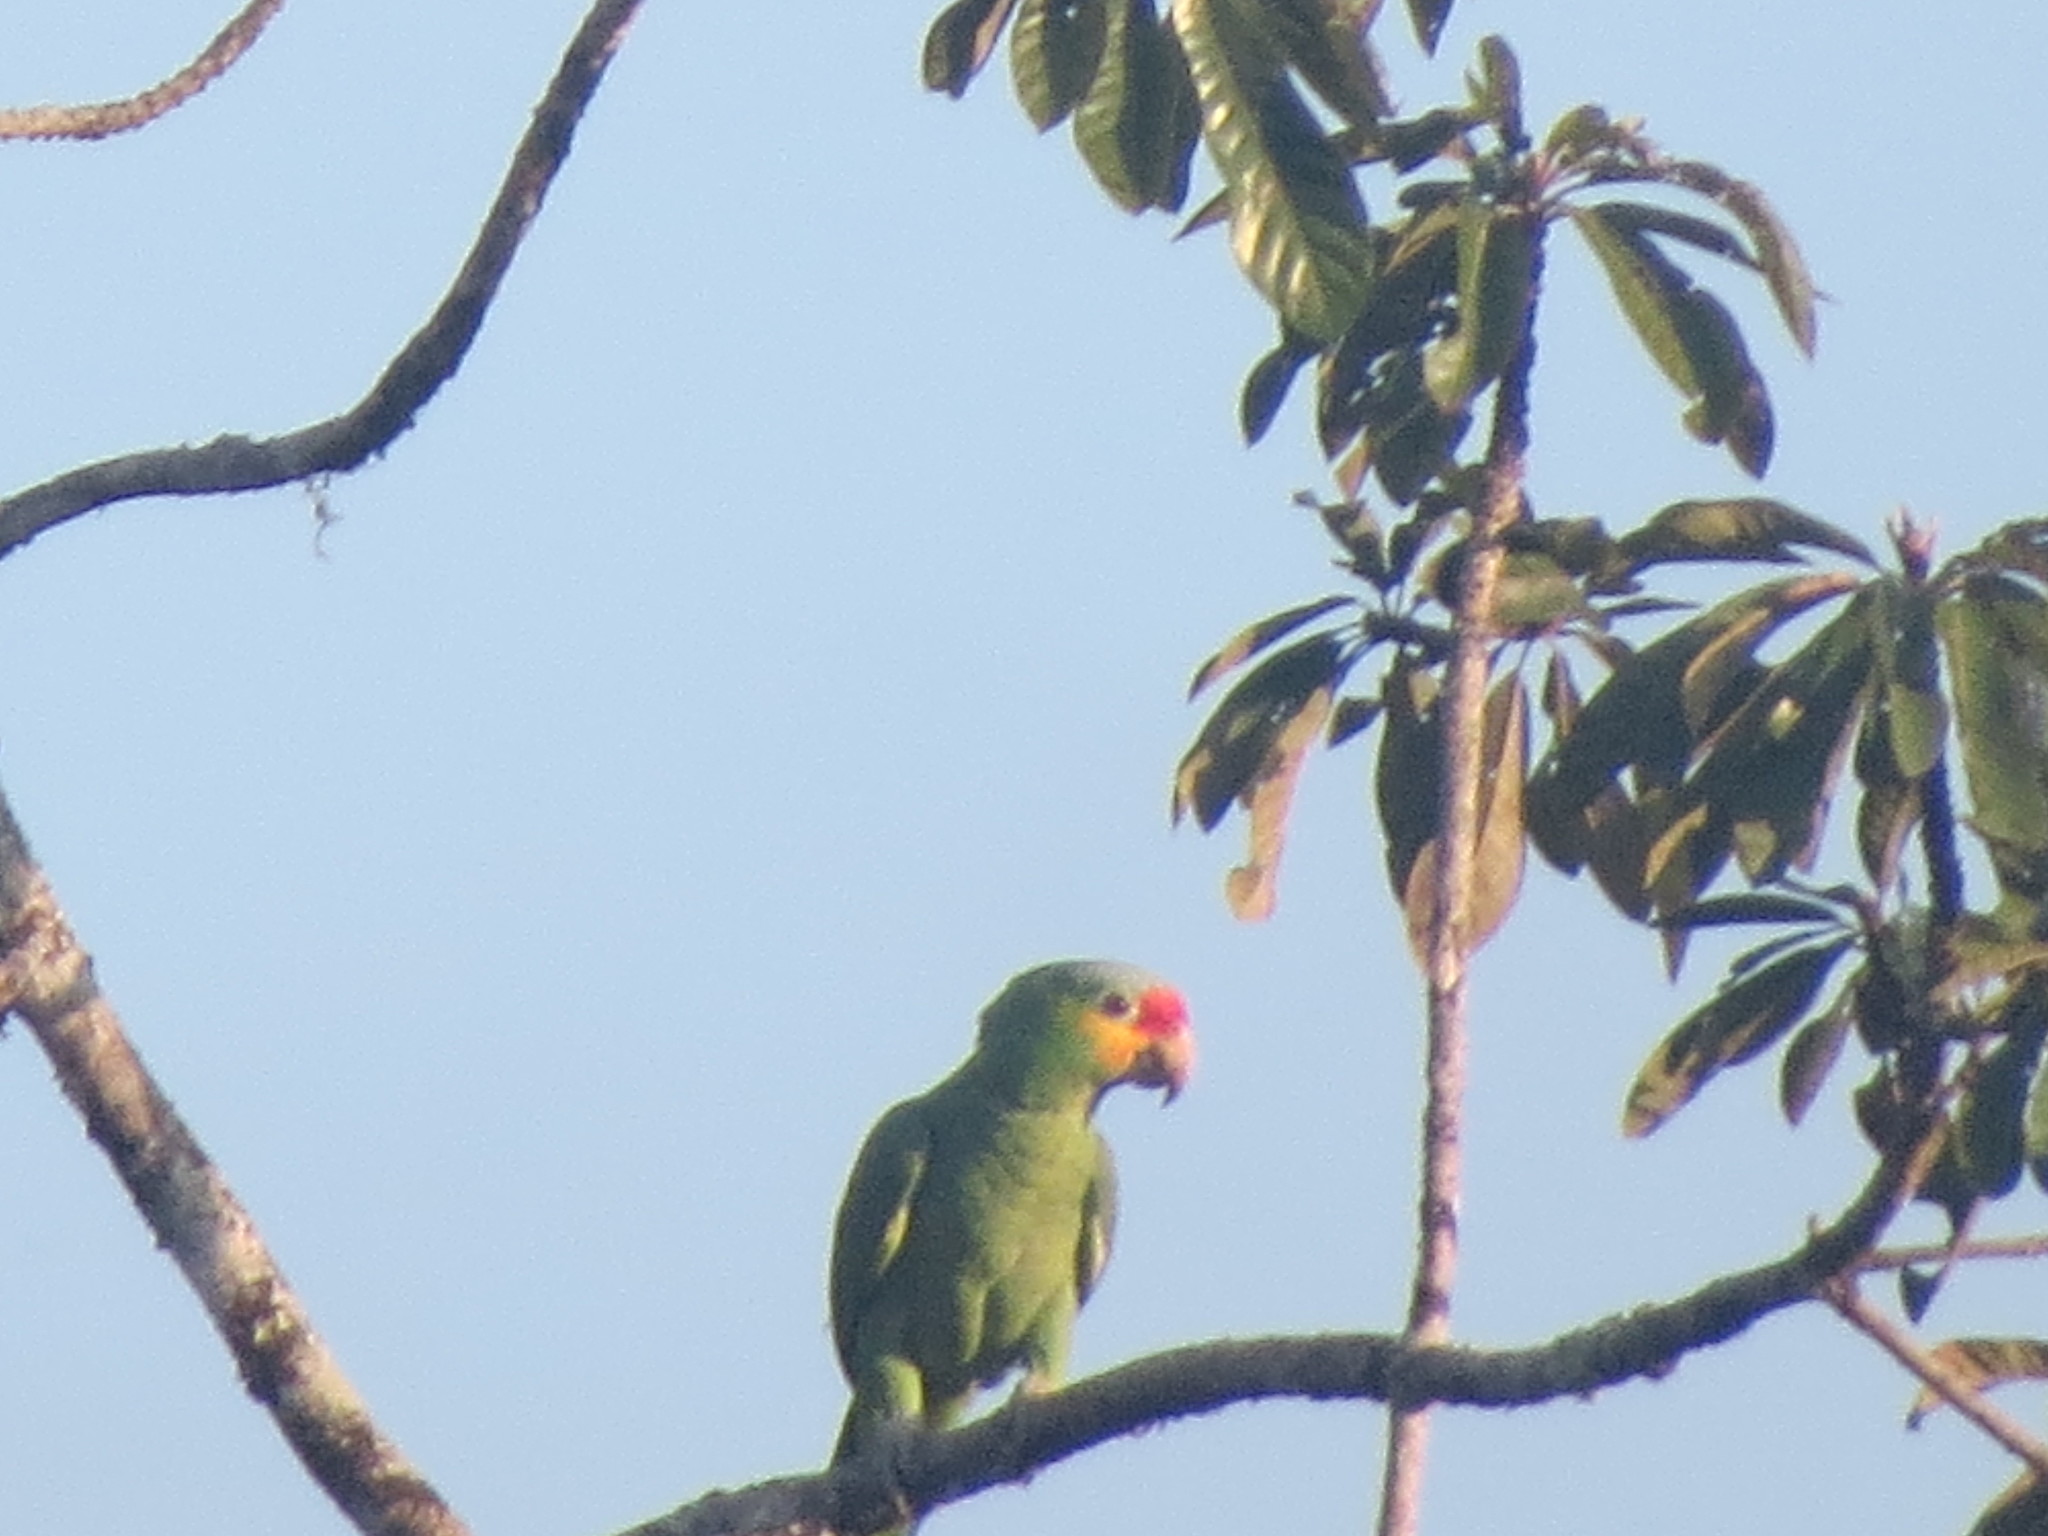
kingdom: Animalia
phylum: Chordata
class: Aves
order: Psittaciformes
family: Psittacidae
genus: Amazona
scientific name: Amazona autumnalis
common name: Red-lored amazon
